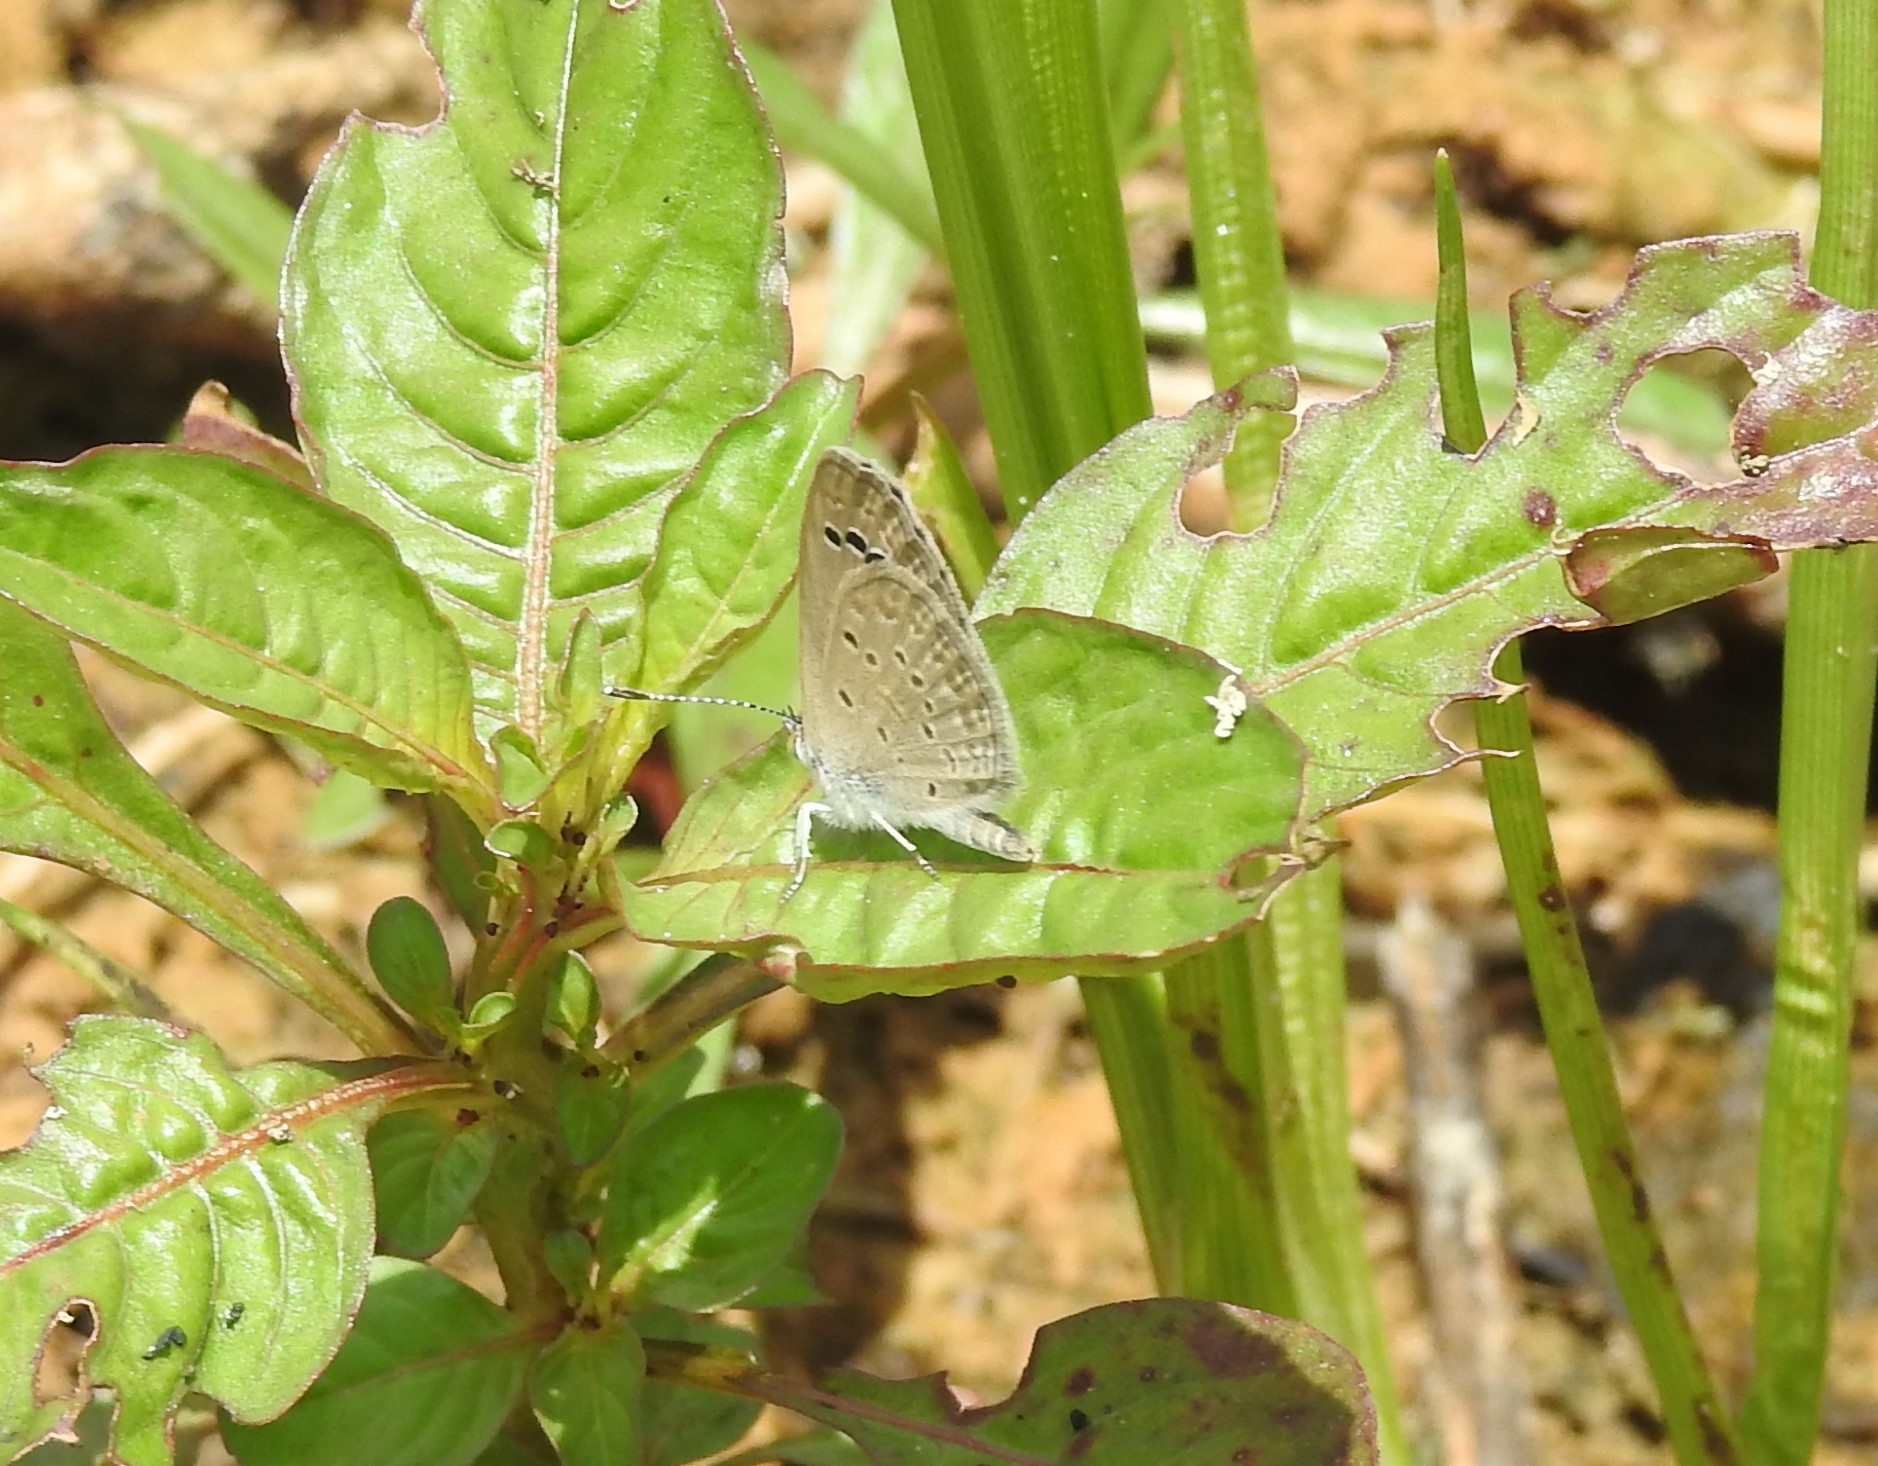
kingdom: Animalia
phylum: Arthropoda
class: Insecta
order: Lepidoptera
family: Lycaenidae
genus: Zizina
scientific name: Zizina otis
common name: Lesser grass blue
